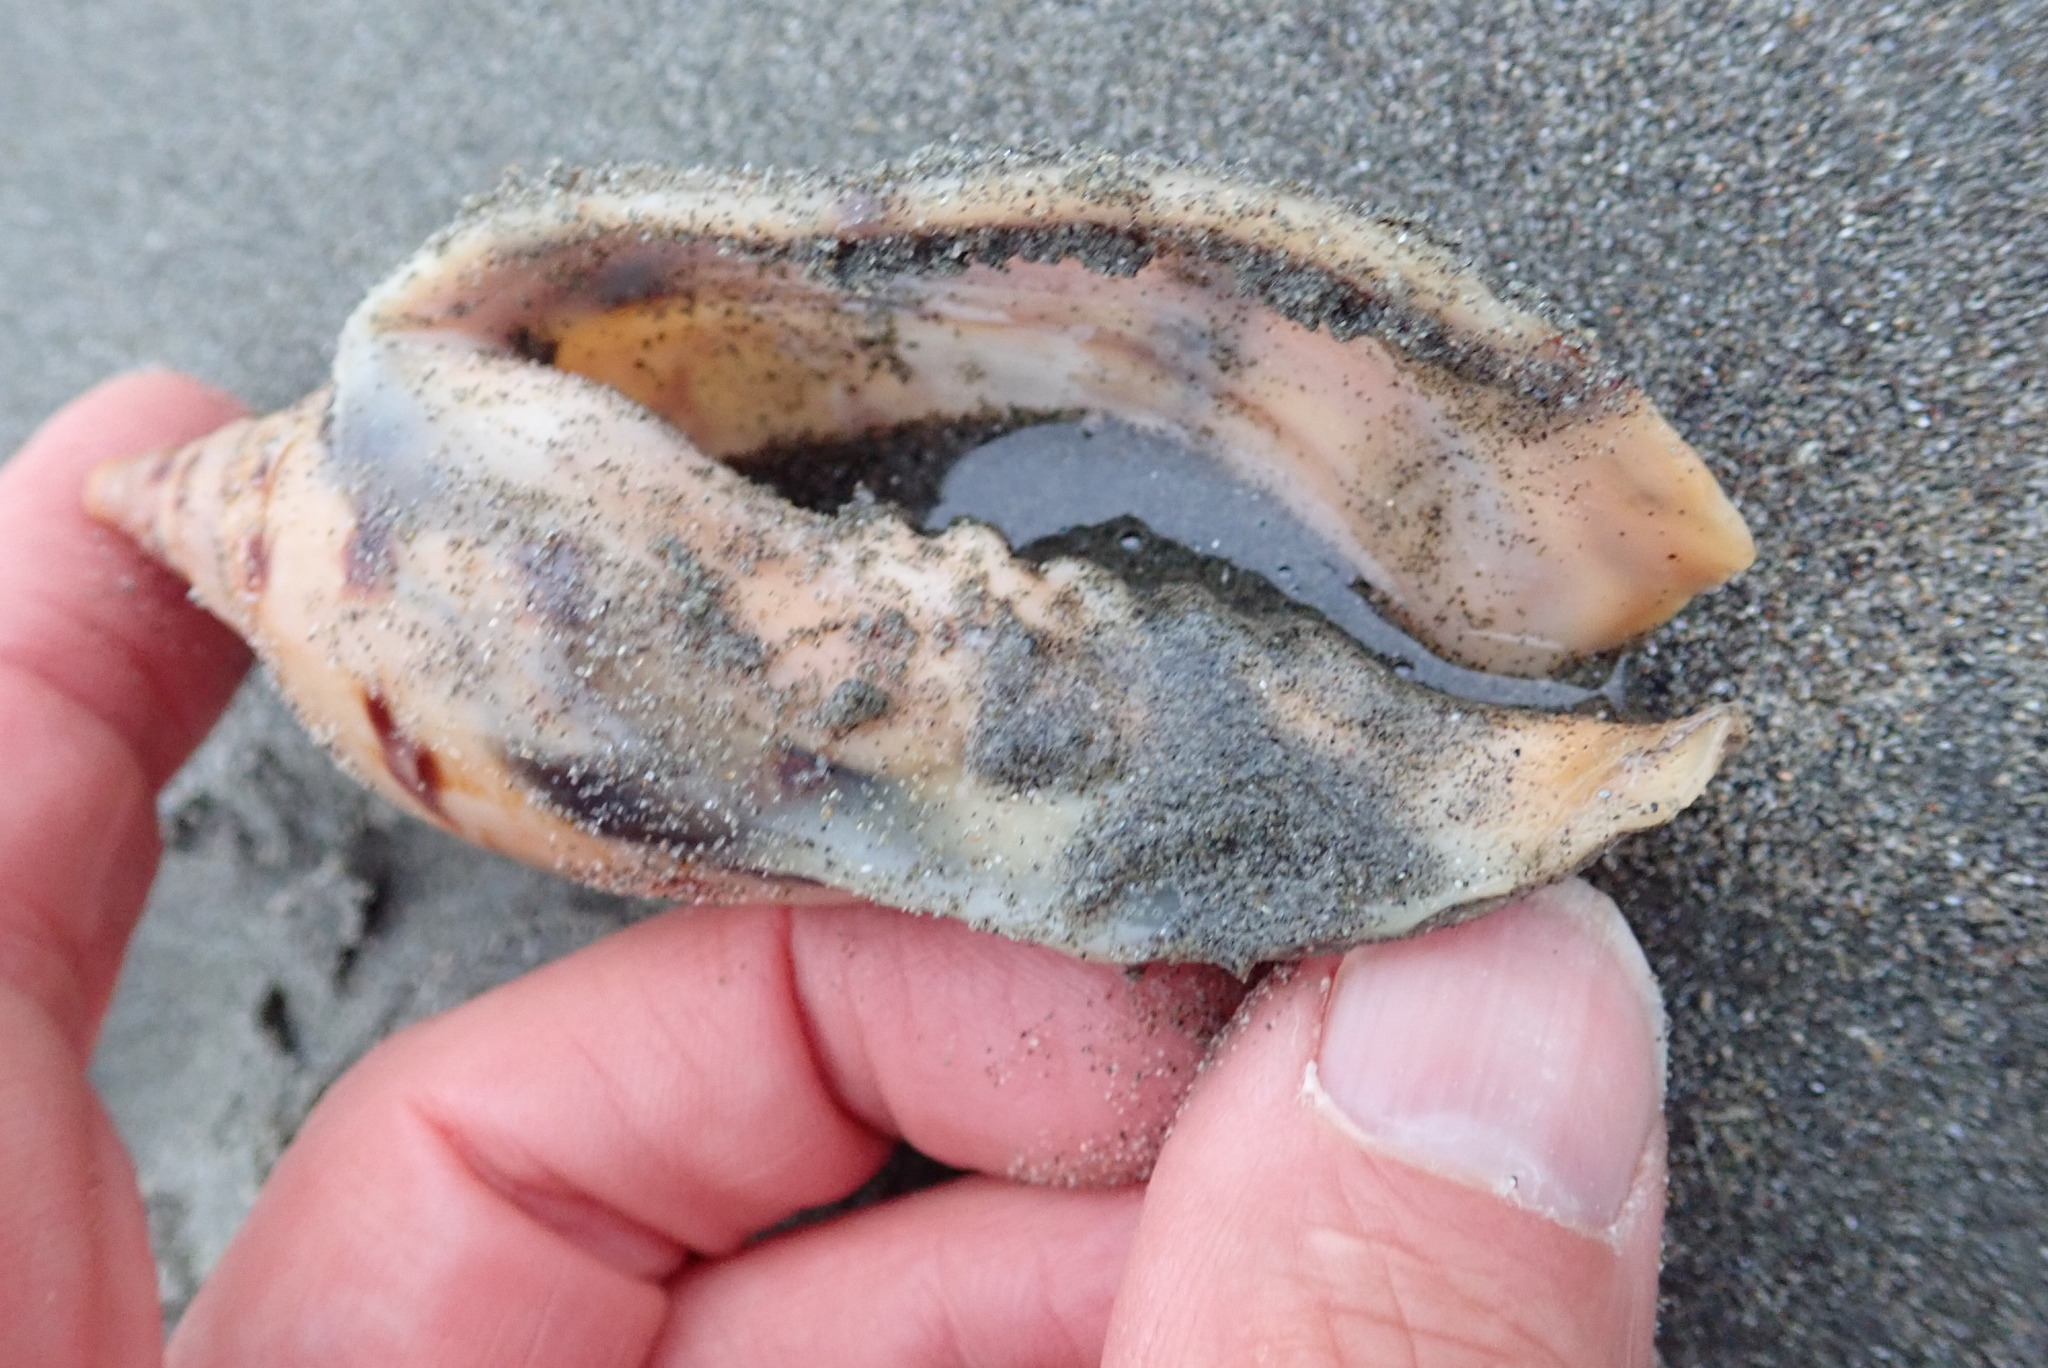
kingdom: Animalia
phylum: Mollusca
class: Gastropoda
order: Neogastropoda
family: Volutidae
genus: Alcithoe
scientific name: Alcithoe arabica
